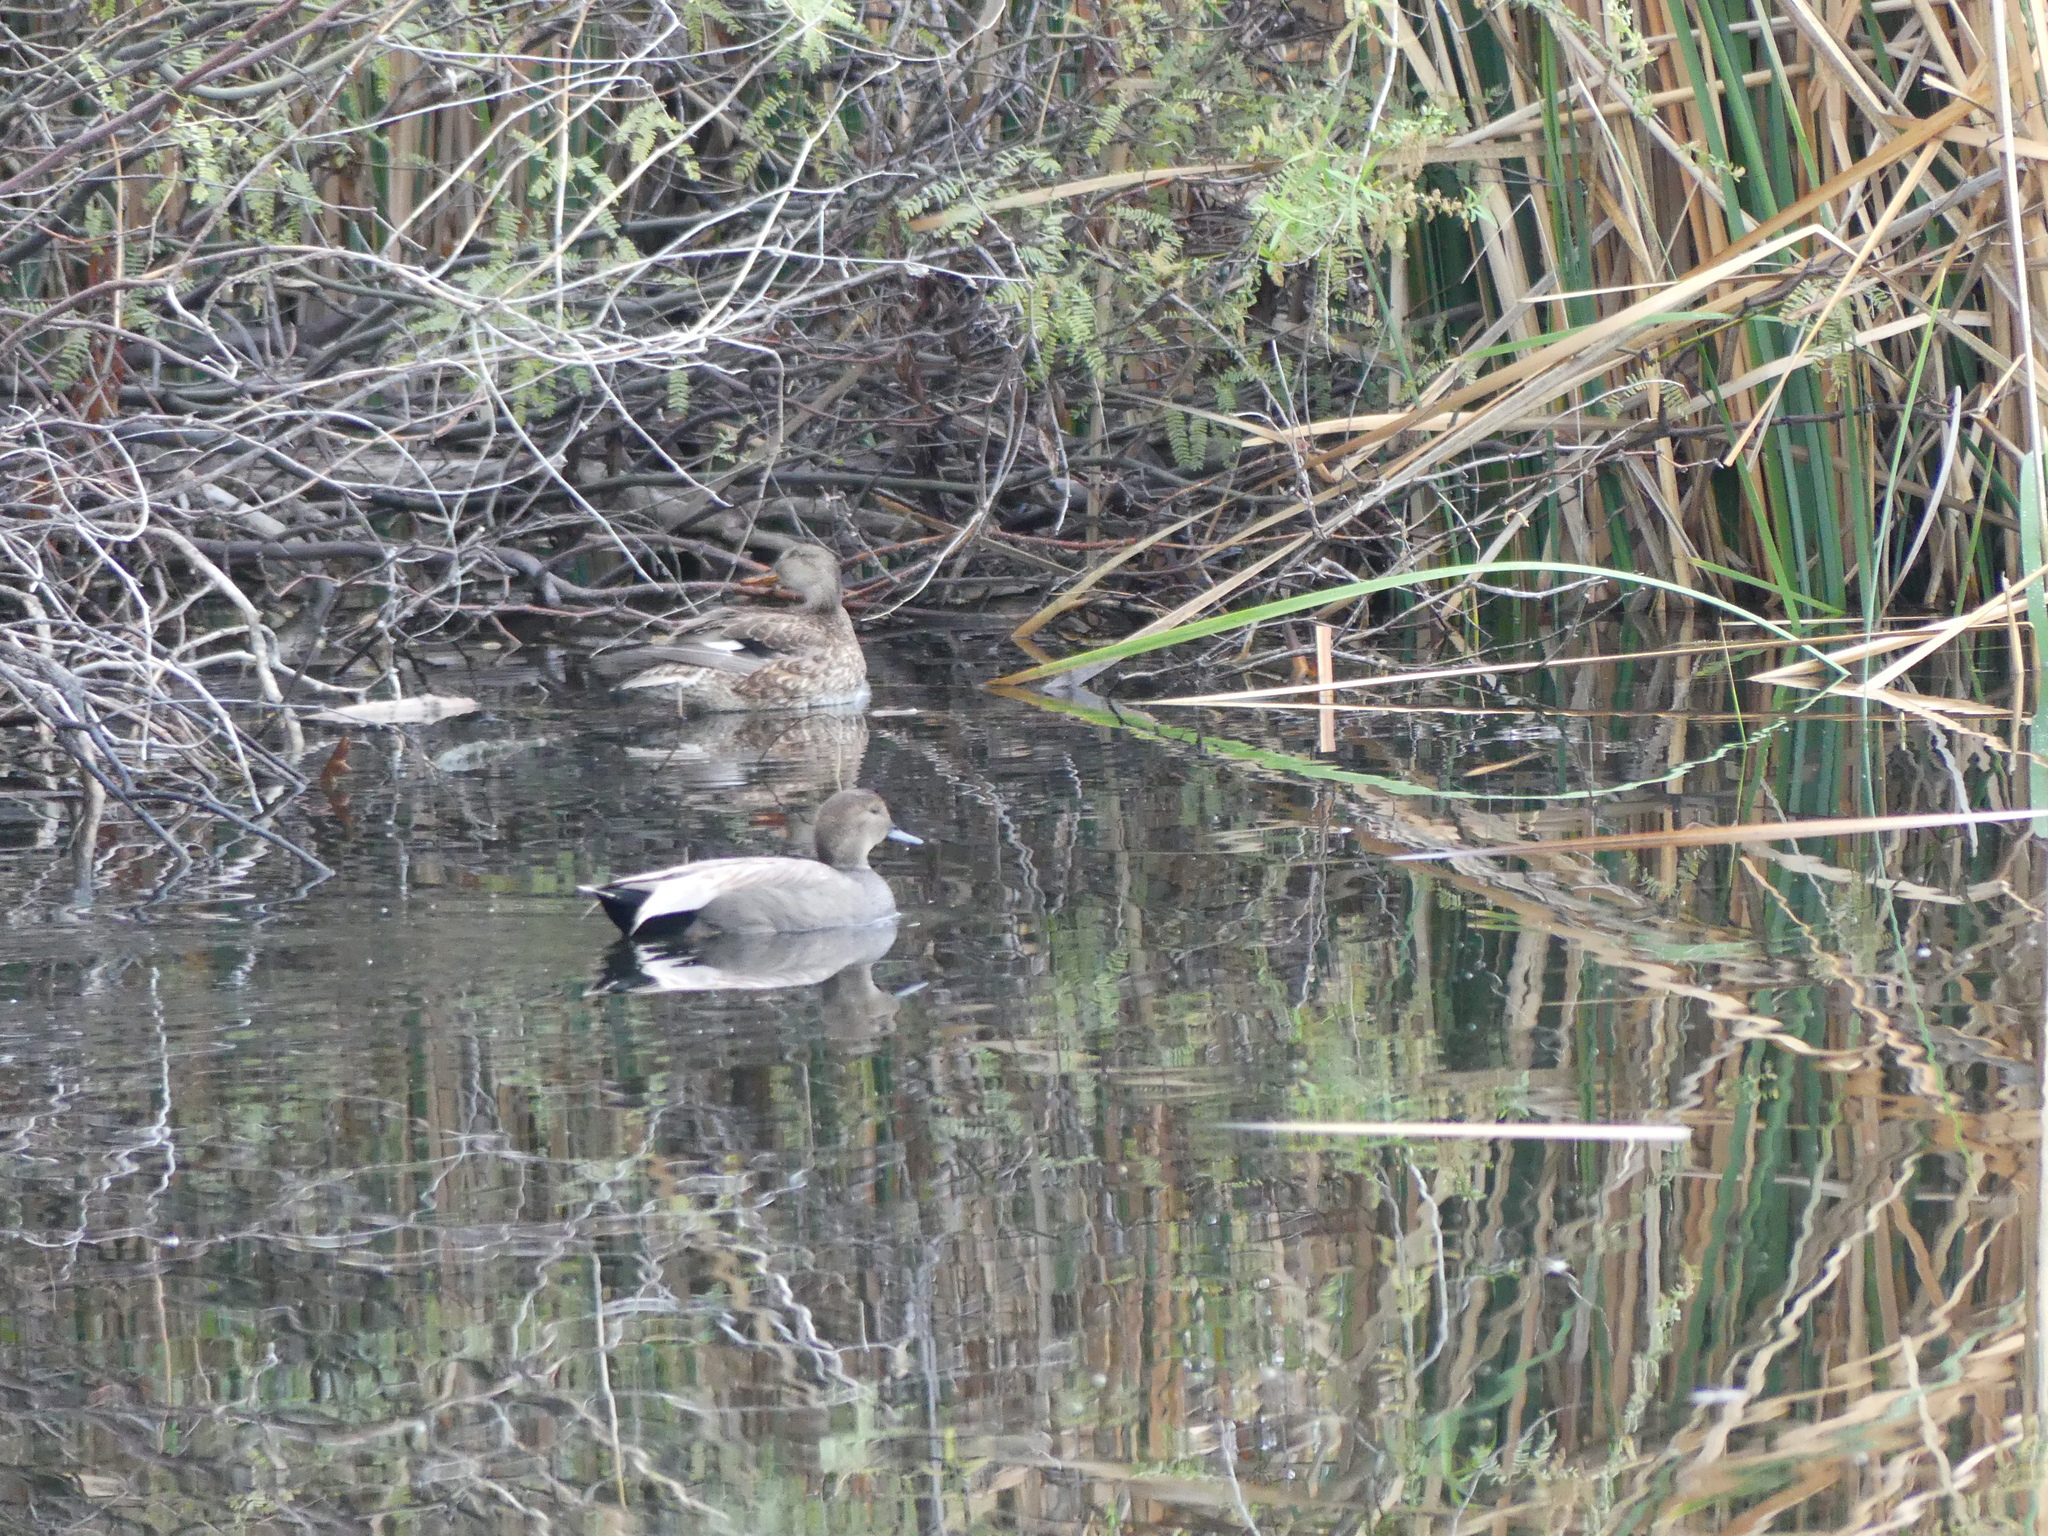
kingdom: Animalia
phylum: Chordata
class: Aves
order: Anseriformes
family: Anatidae
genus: Mareca
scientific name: Mareca strepera
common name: Gadwall
